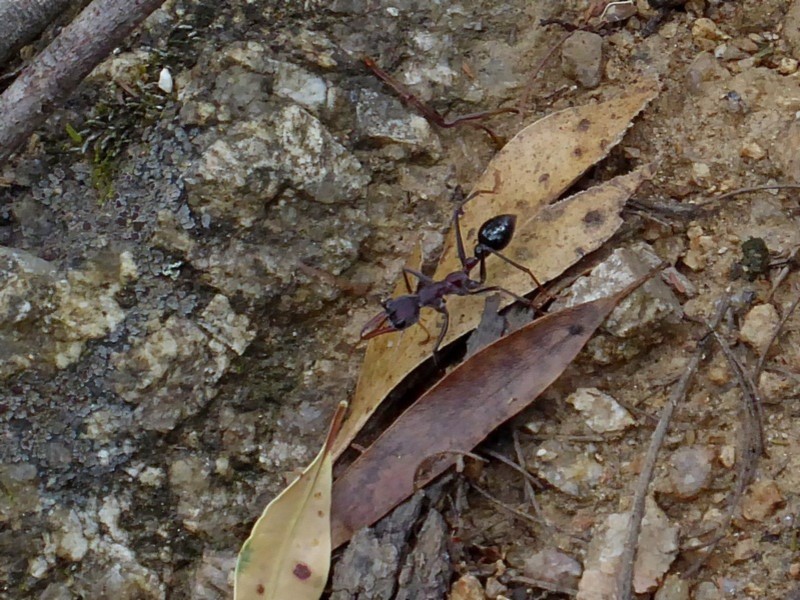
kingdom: Animalia
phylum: Arthropoda
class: Insecta
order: Hymenoptera
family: Formicidae
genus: Myrmecia
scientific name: Myrmecia simillima
